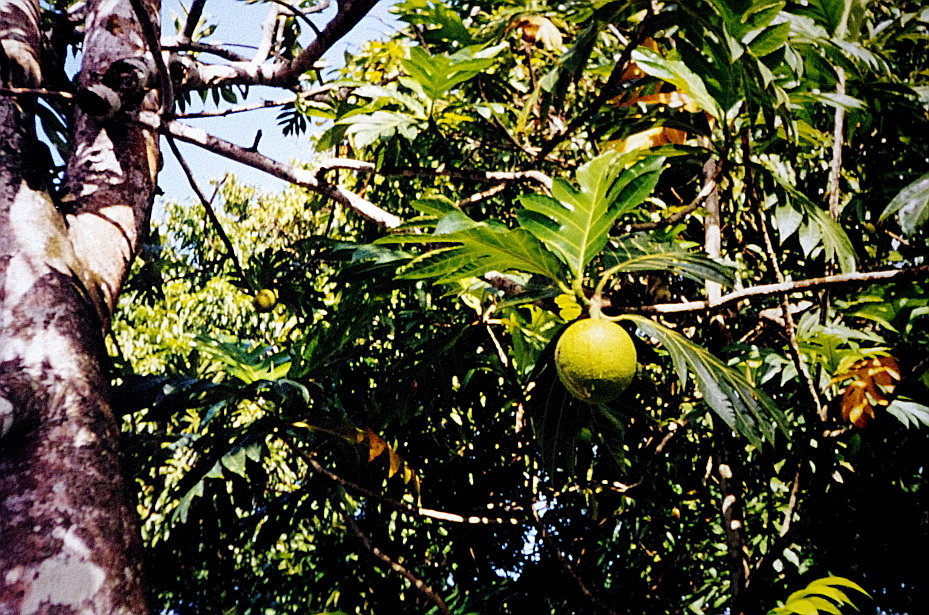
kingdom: Plantae
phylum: Tracheophyta
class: Magnoliopsida
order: Rosales
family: Moraceae
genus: Artocarpus
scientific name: Artocarpus altilis
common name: Breadfruit
